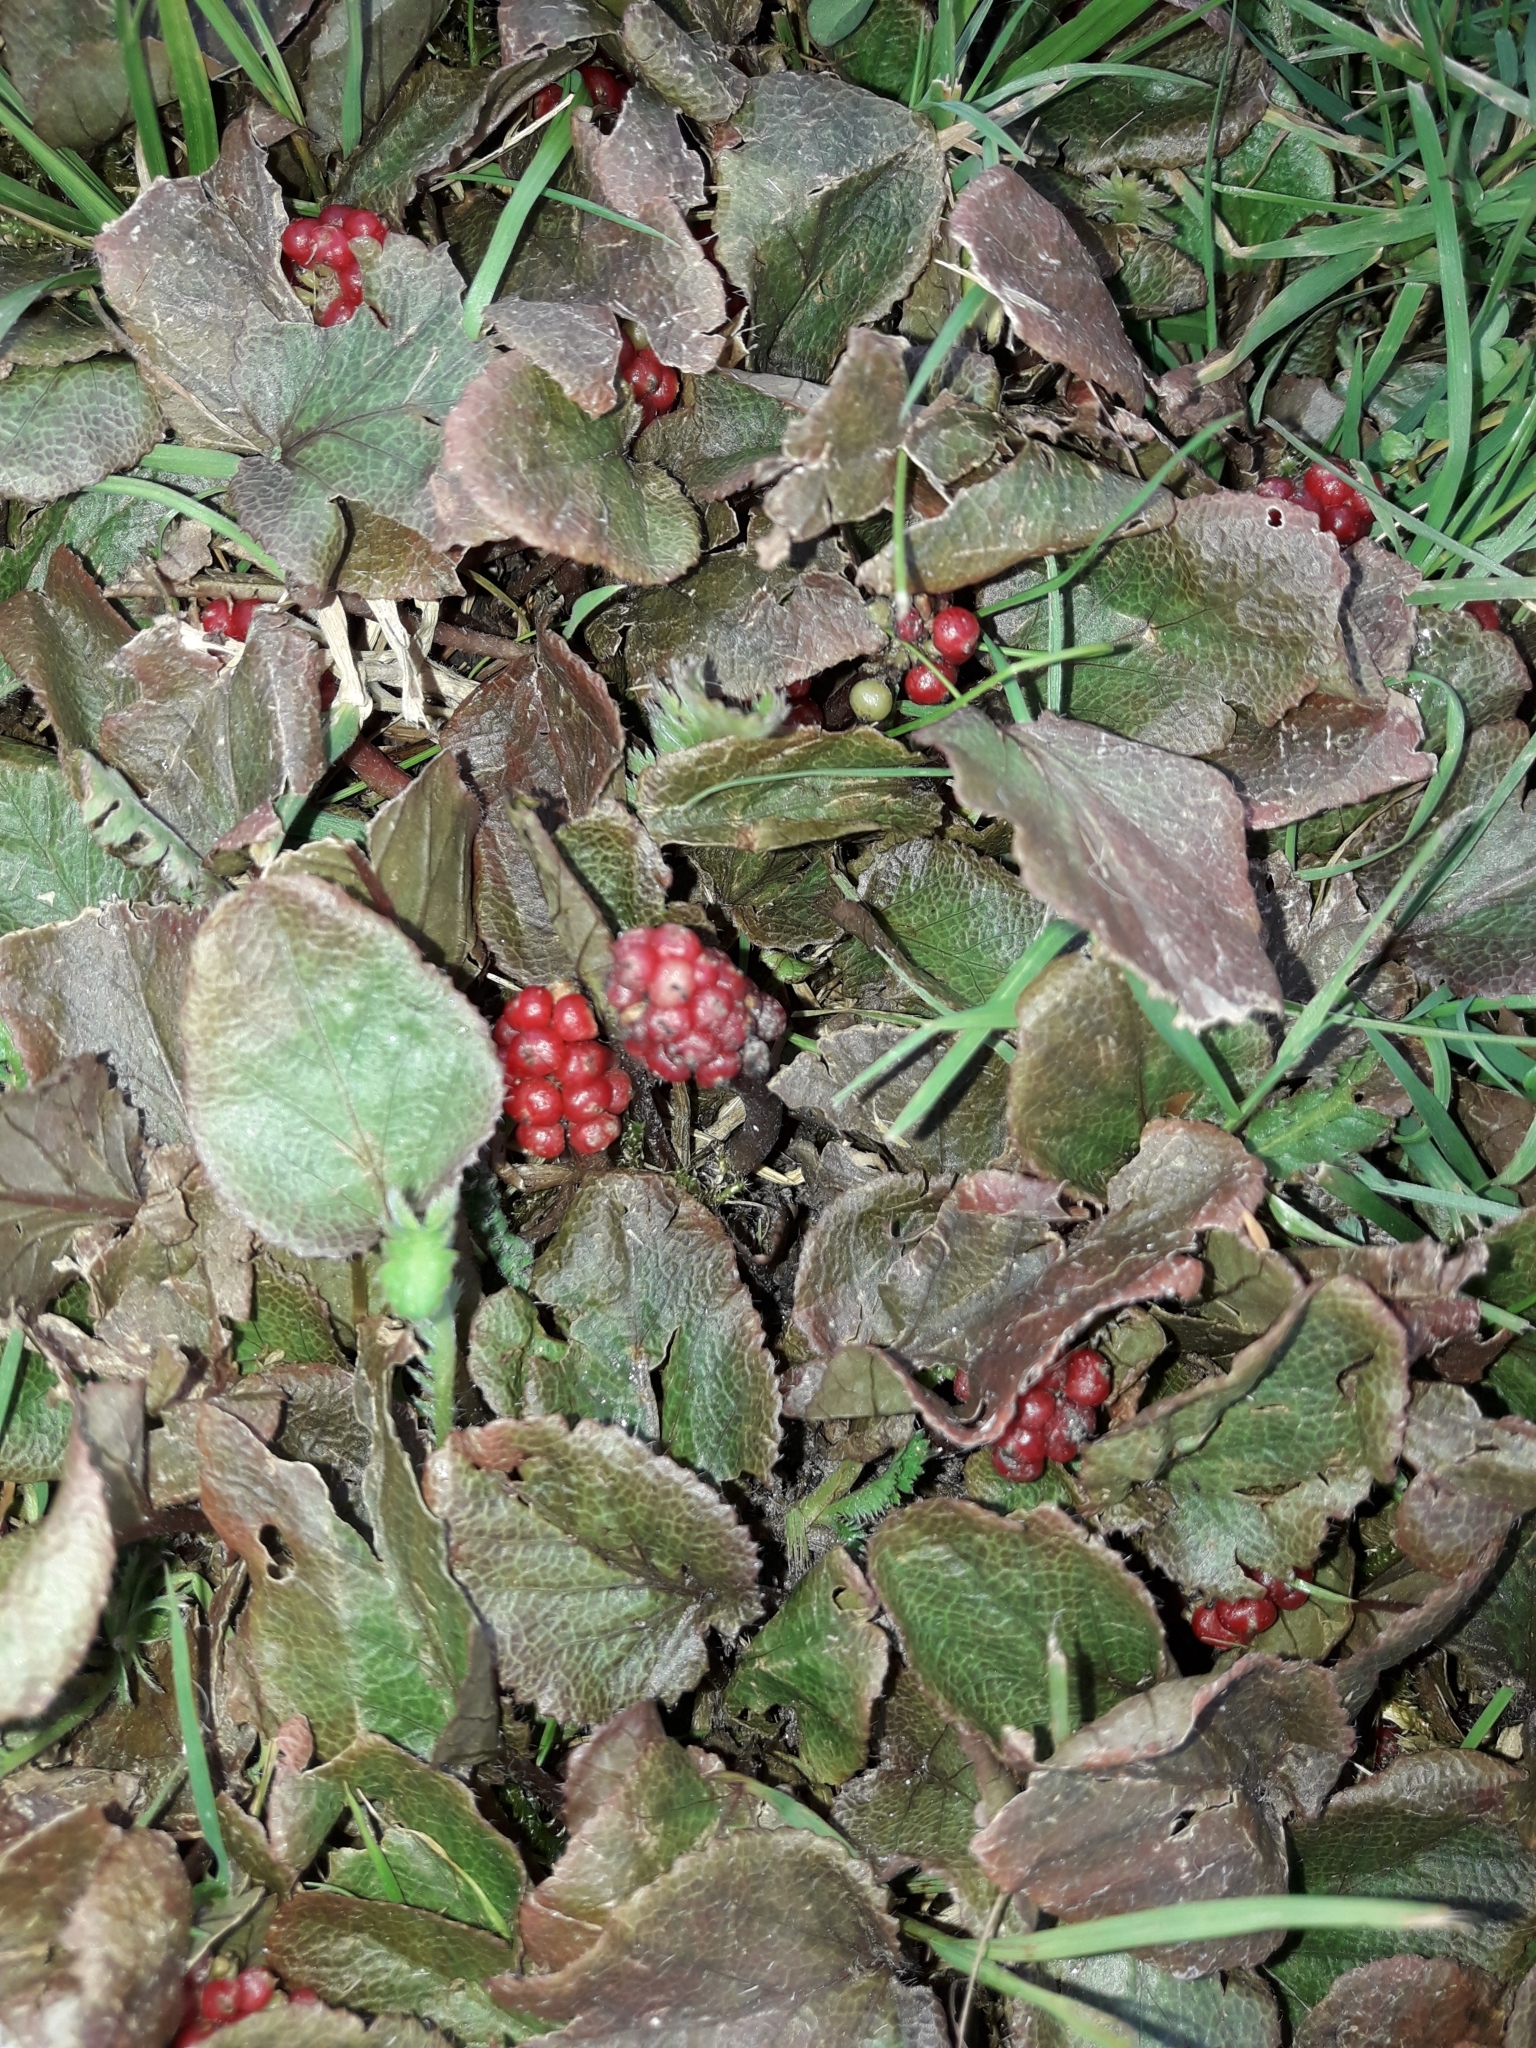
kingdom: Plantae
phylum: Tracheophyta
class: Magnoliopsida
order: Gunnerales
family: Gunneraceae
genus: Gunnera
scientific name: Gunnera prorepens
